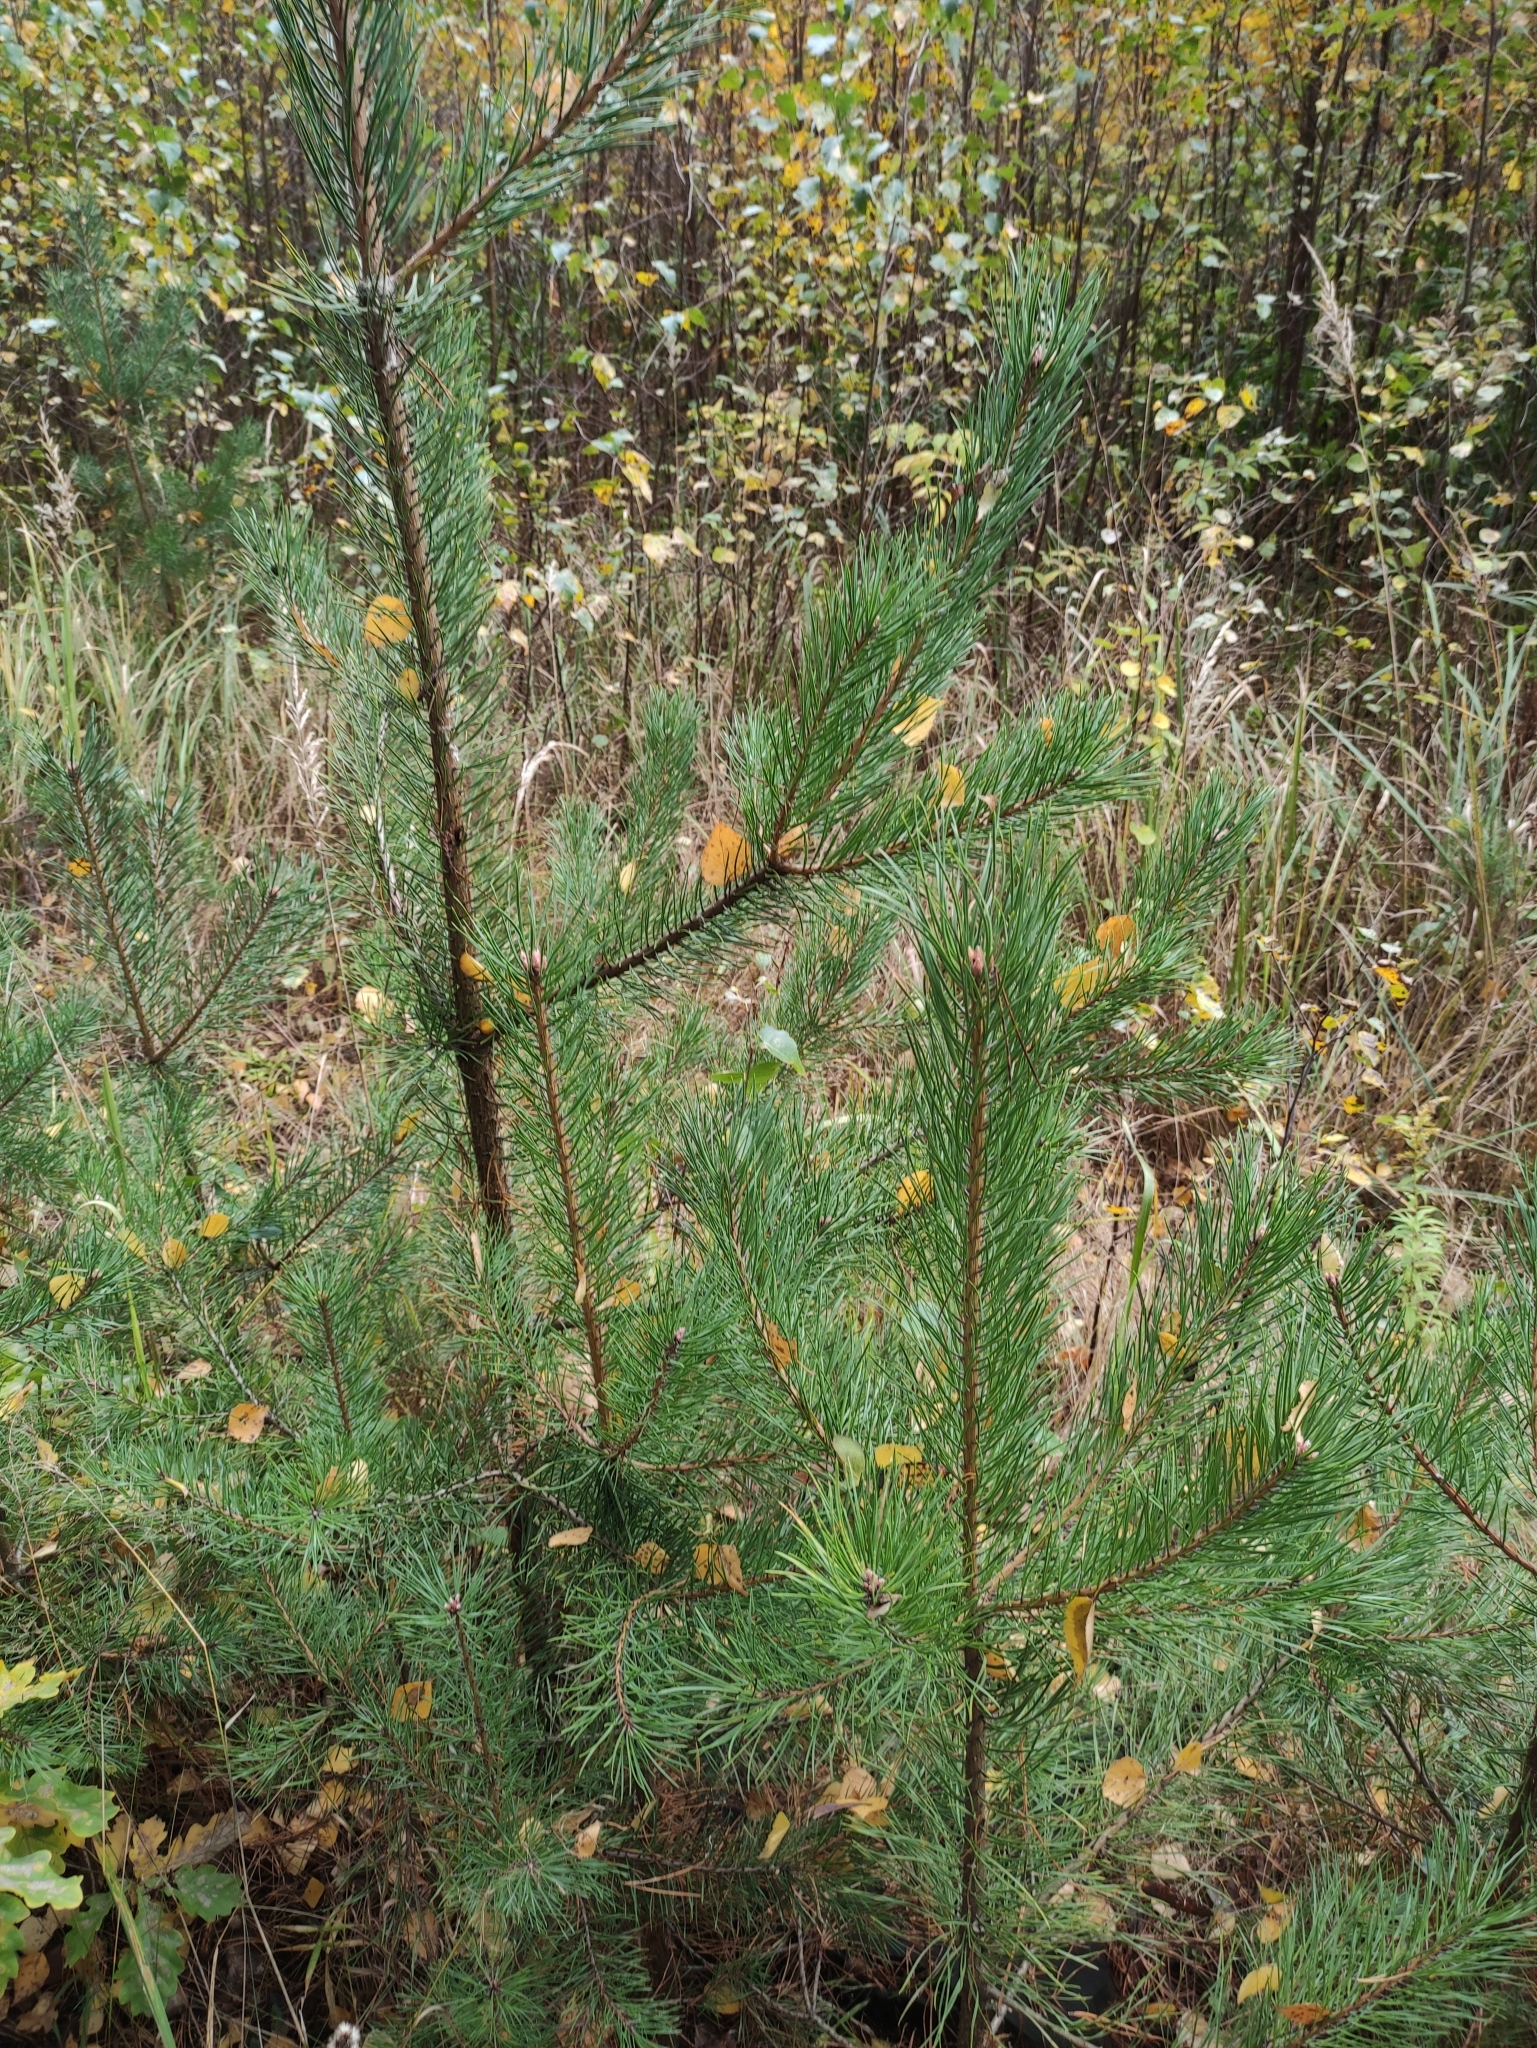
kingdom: Plantae
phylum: Tracheophyta
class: Pinopsida
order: Pinales
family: Pinaceae
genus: Pinus
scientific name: Pinus sylvestris
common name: Scots pine
